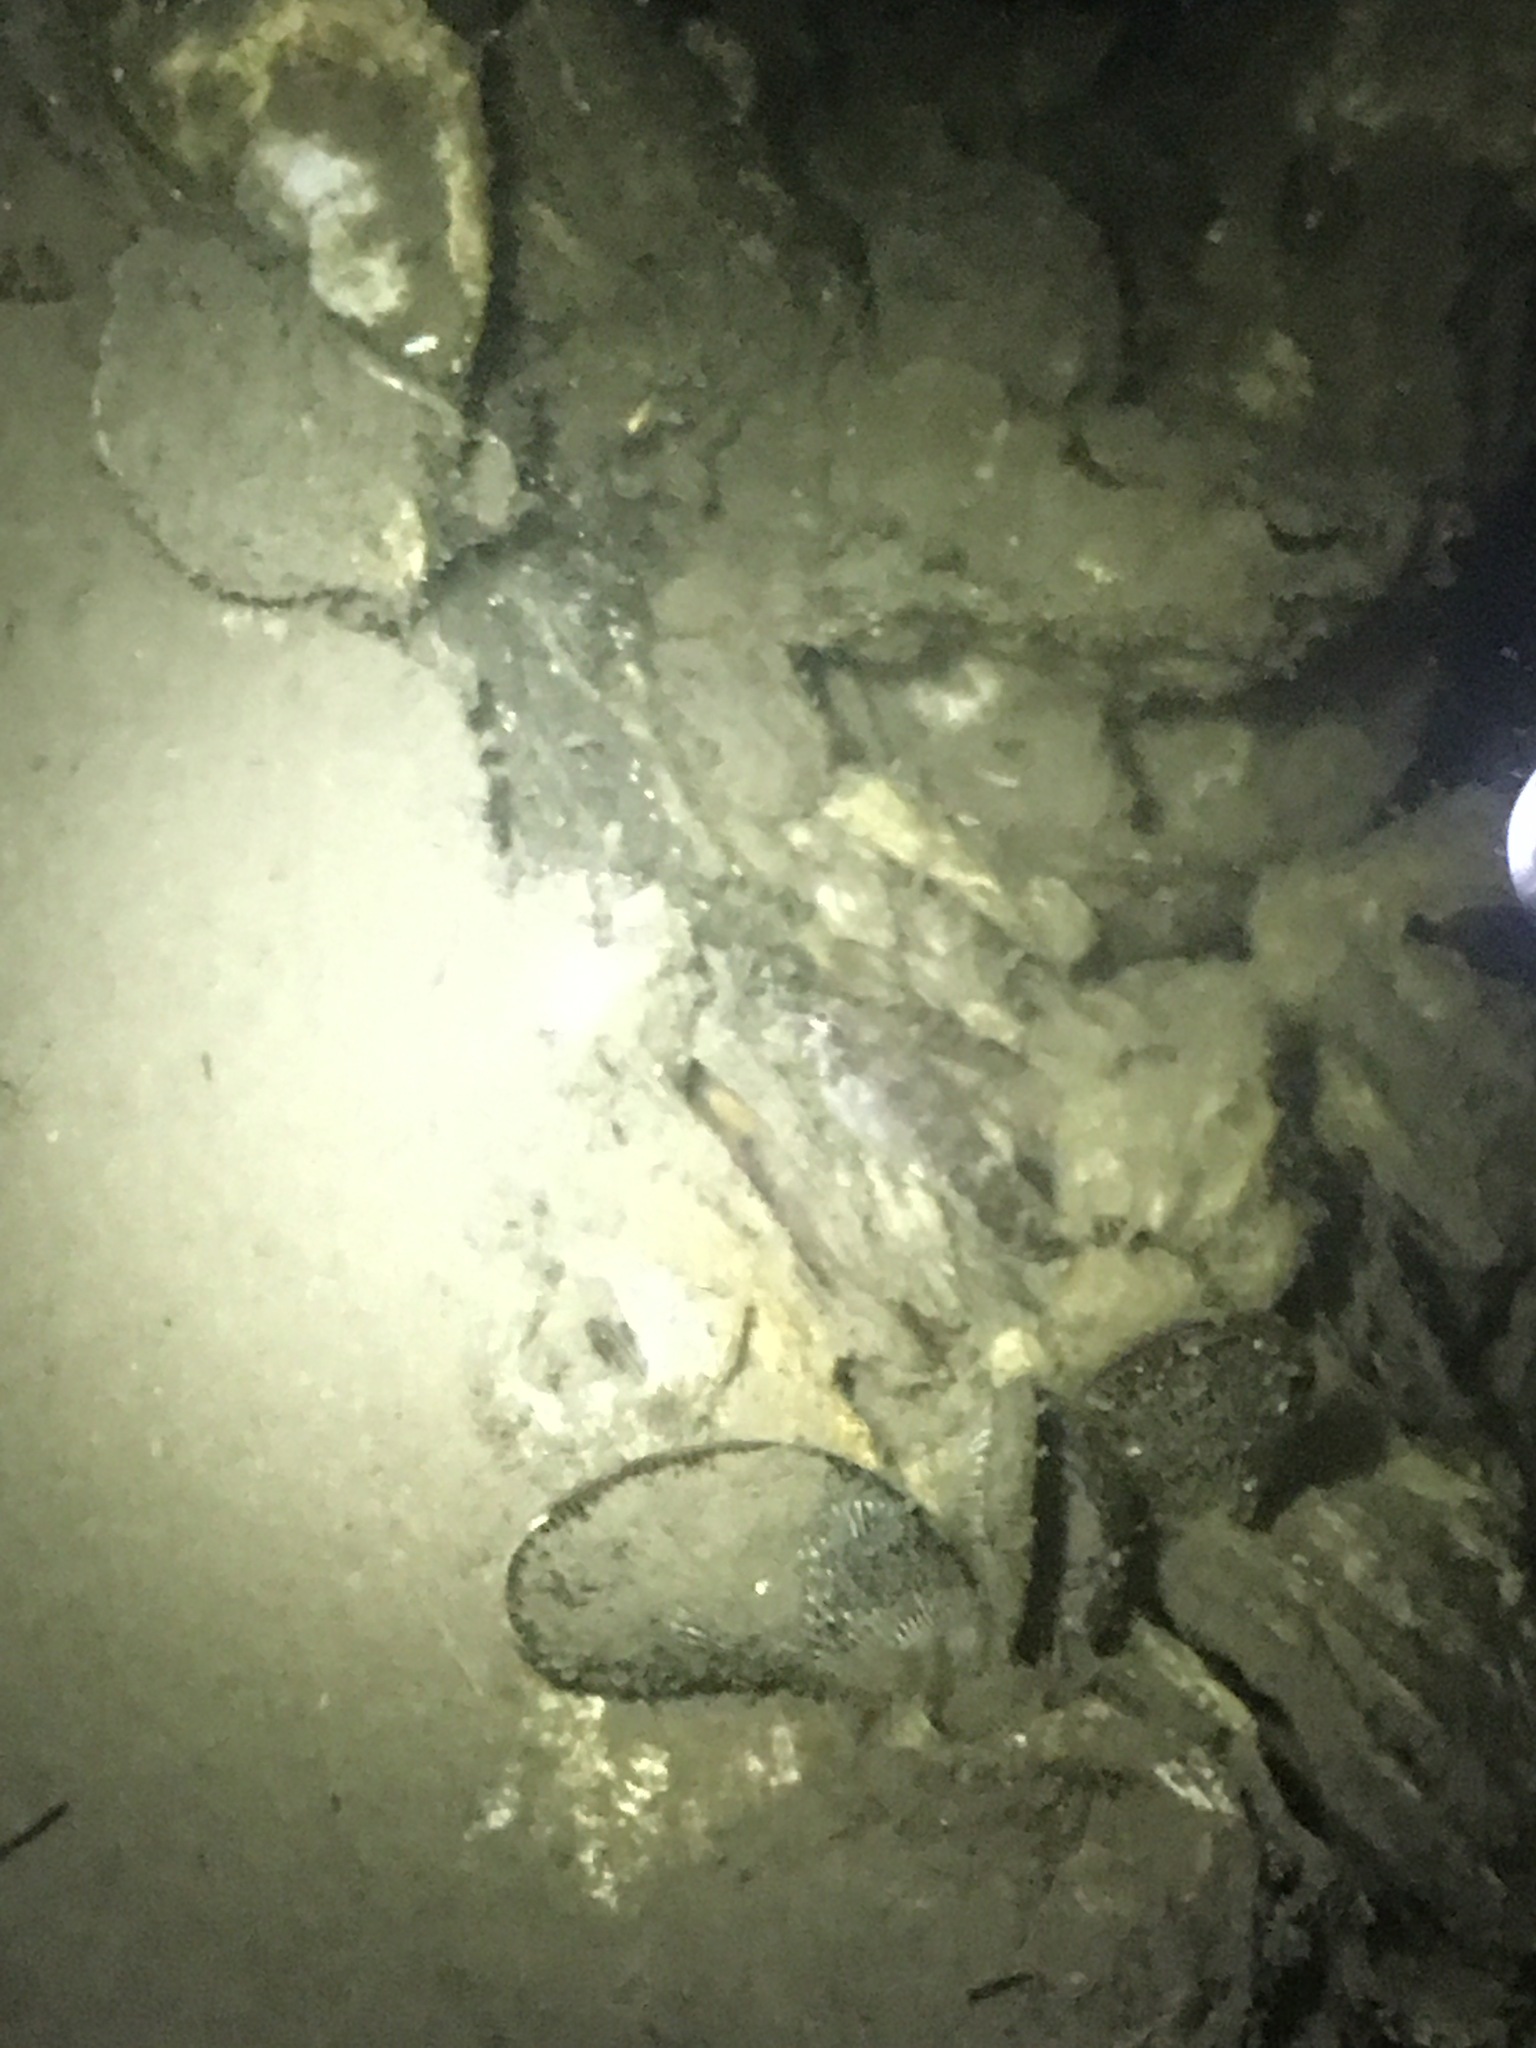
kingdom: Animalia
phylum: Chordata
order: Gobiesociformes
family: Gobiesocidae
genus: Gobiesox
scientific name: Gobiesox strumosus
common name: Skilletfish
